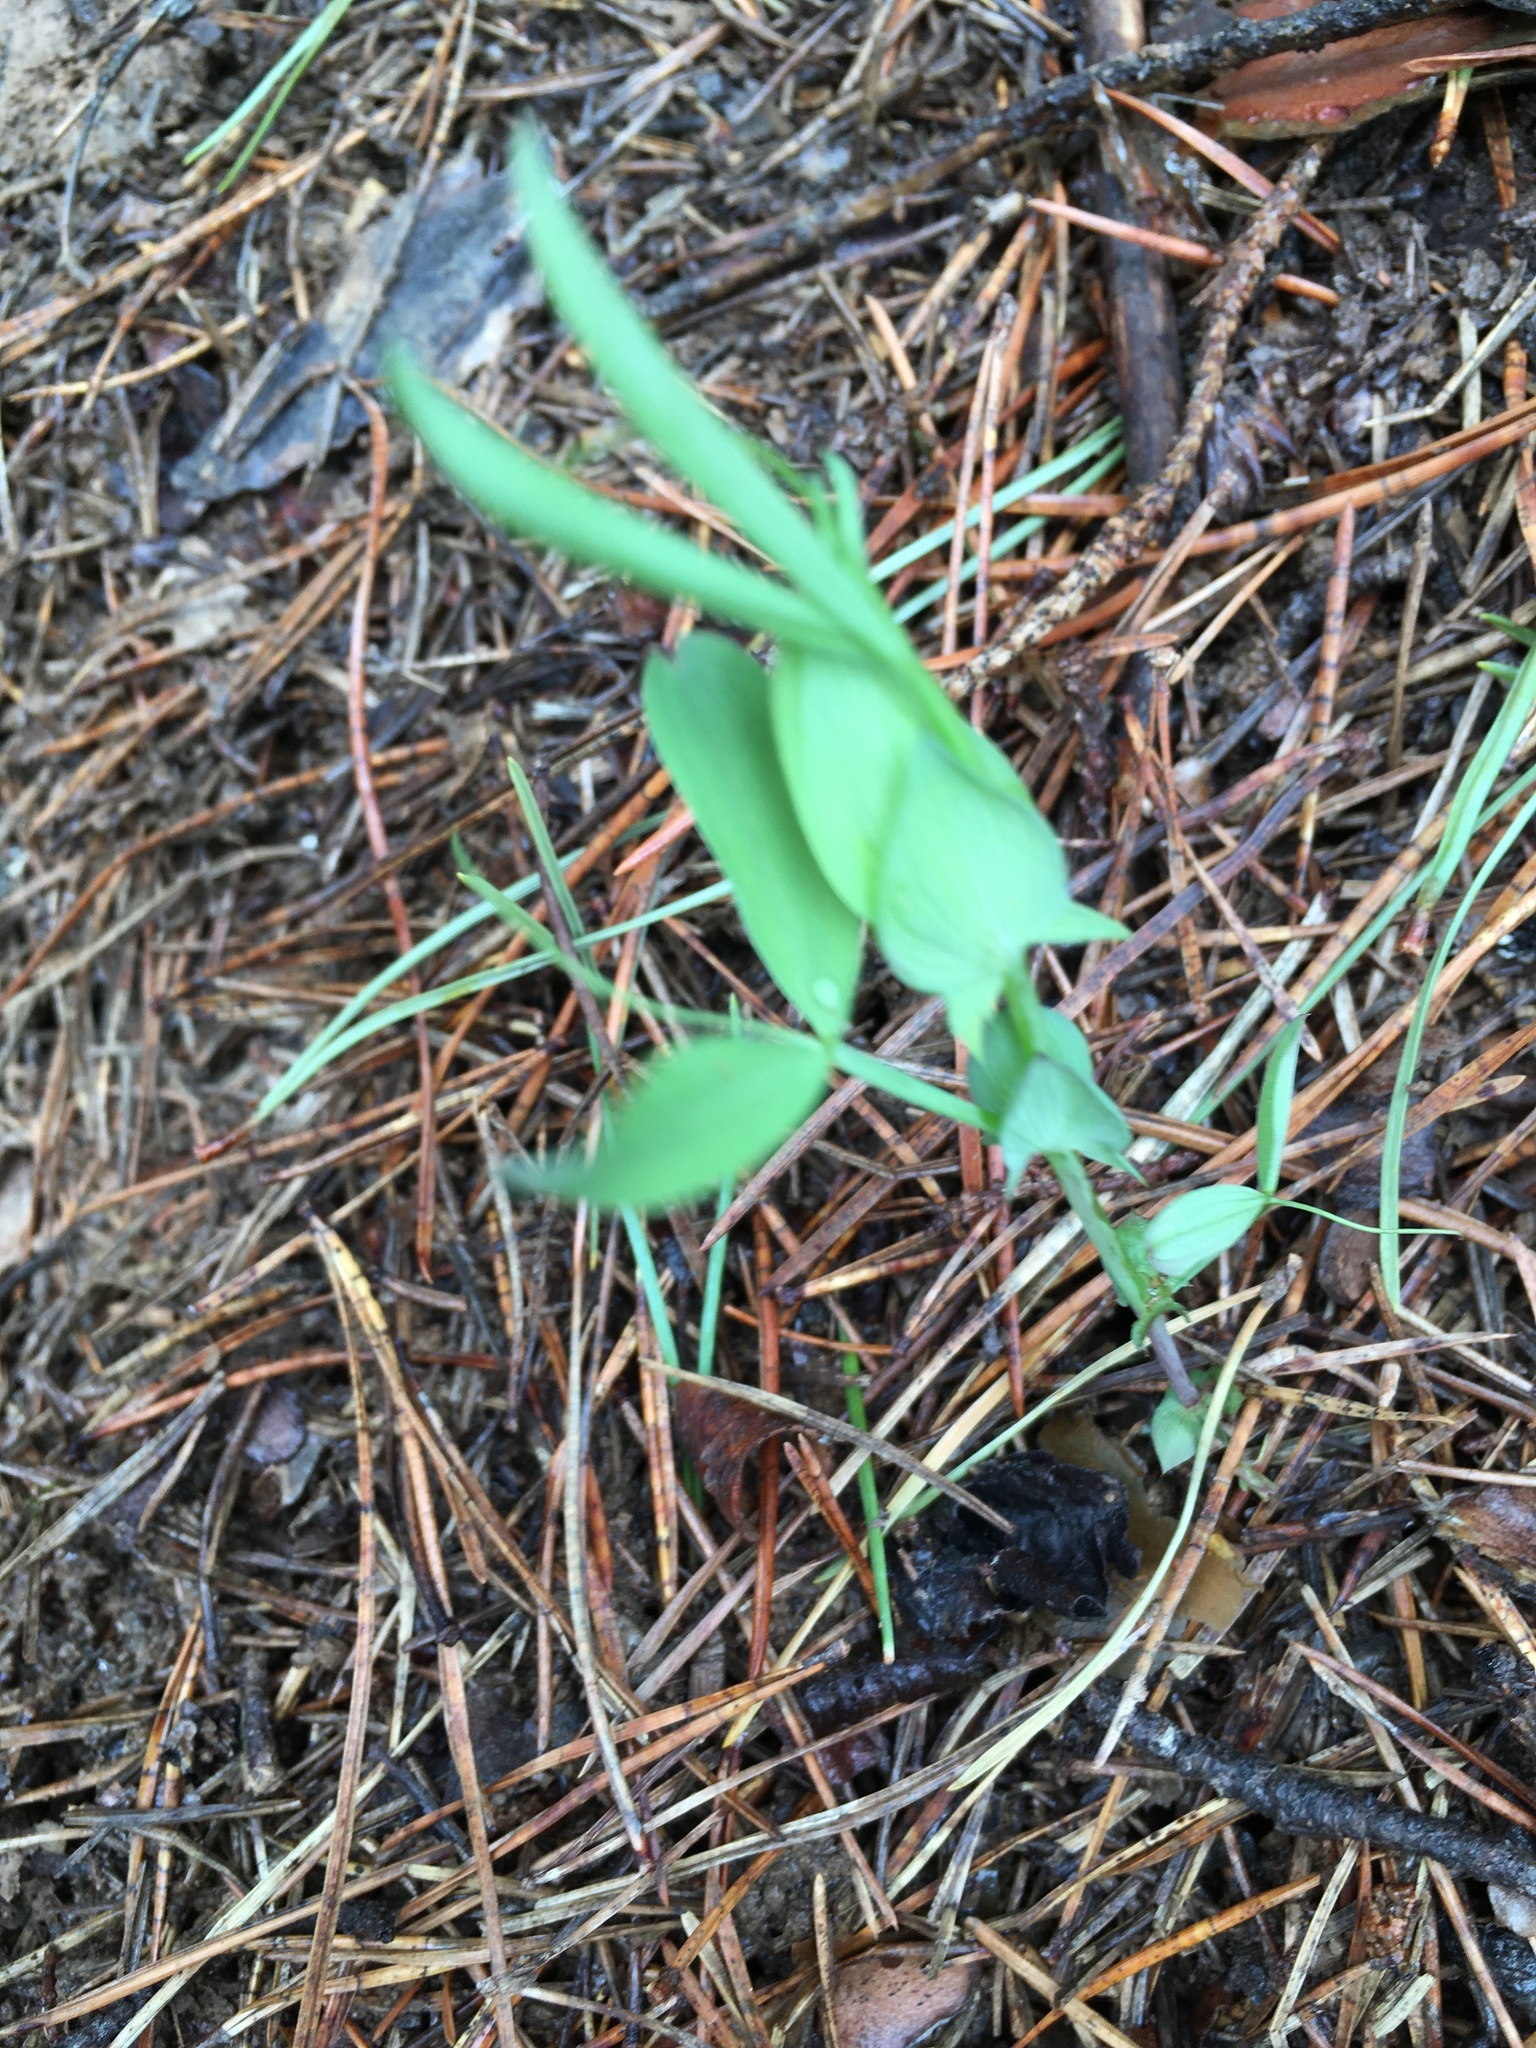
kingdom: Plantae
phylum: Tracheophyta
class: Magnoliopsida
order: Fabales
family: Fabaceae
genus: Lathyrus
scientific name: Lathyrus pratensis
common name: Meadow vetchling
